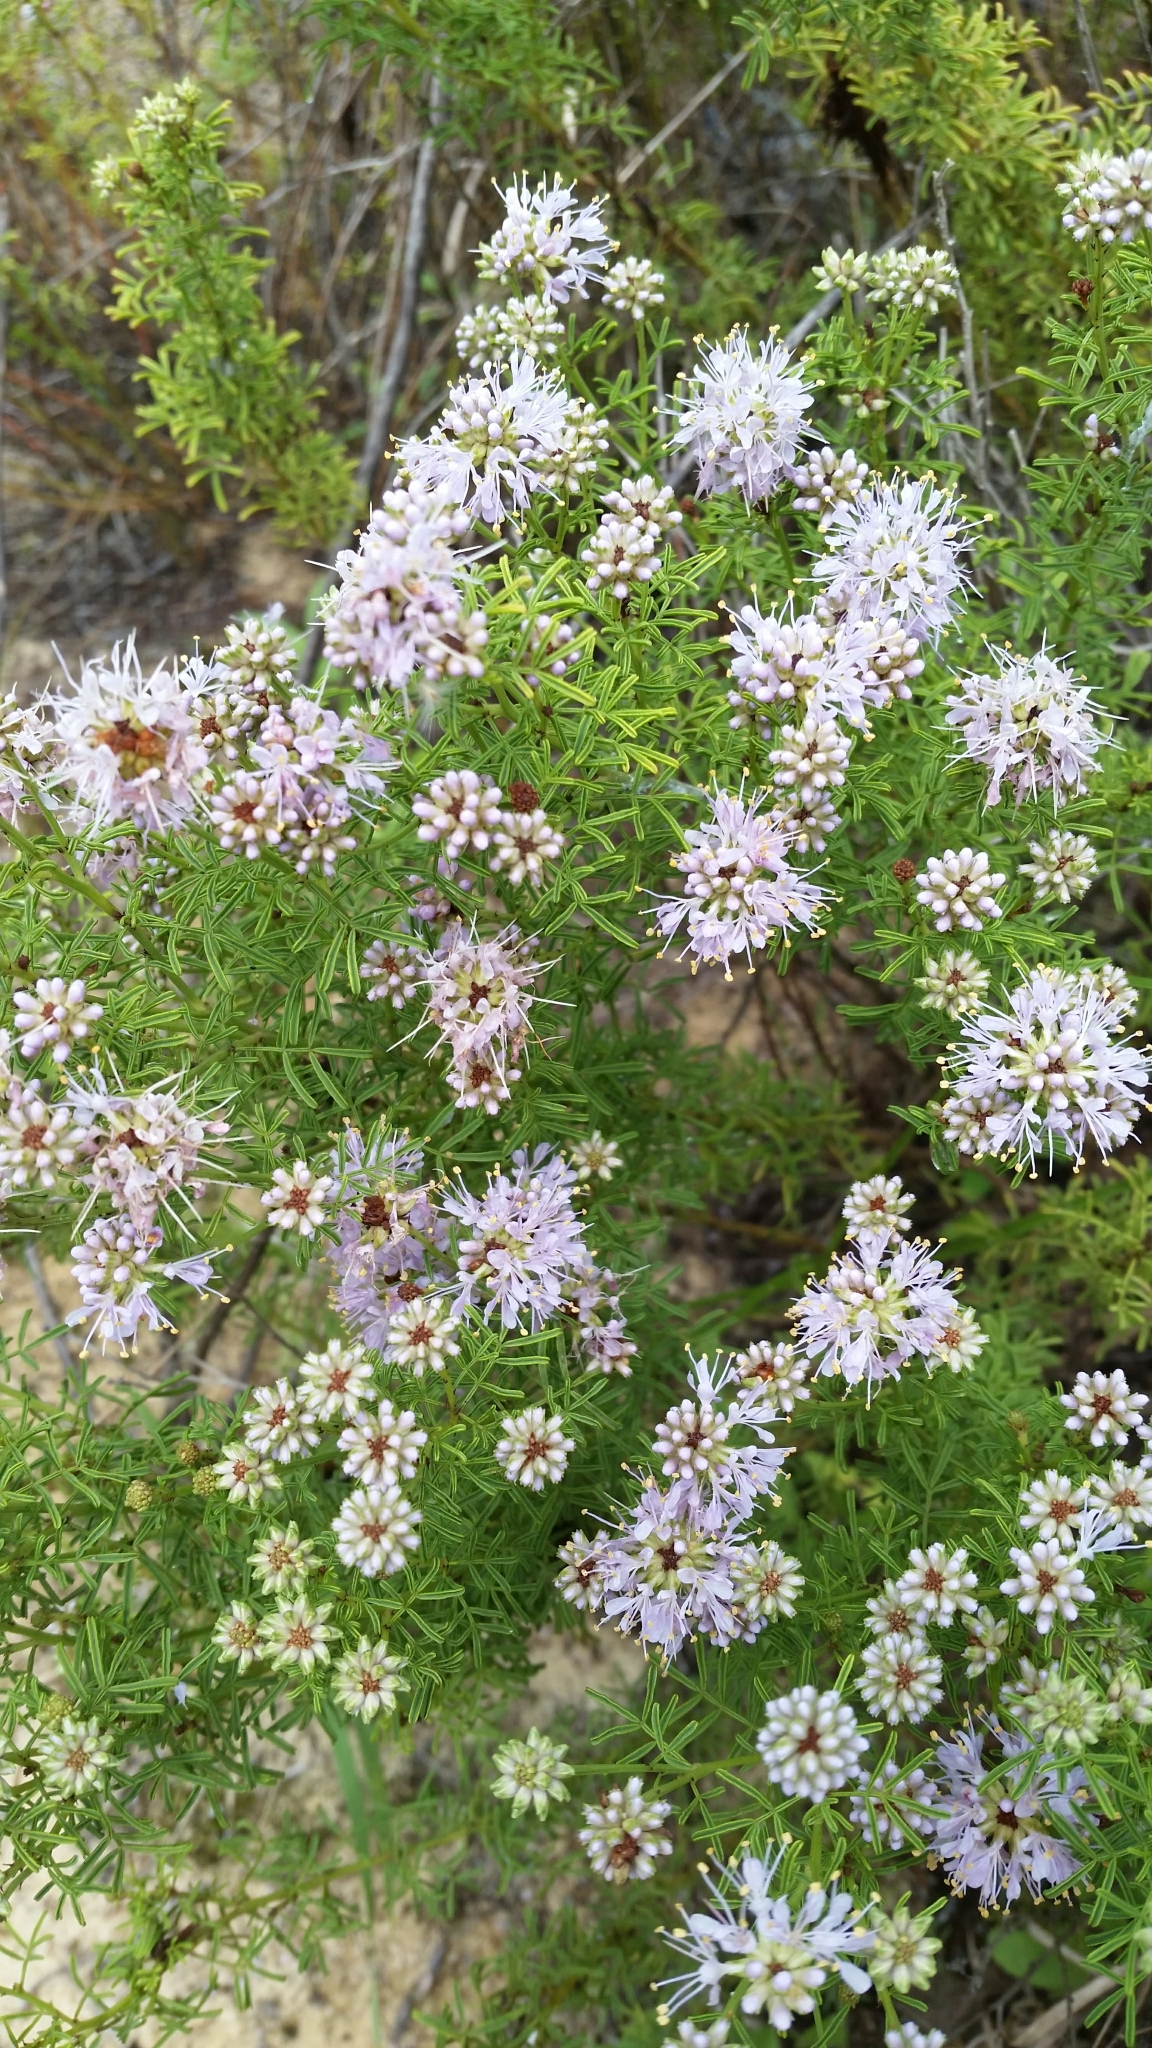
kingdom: Plantae
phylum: Tracheophyta
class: Magnoliopsida
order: Fabales
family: Fabaceae
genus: Dalea
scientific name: Dalea feayi
